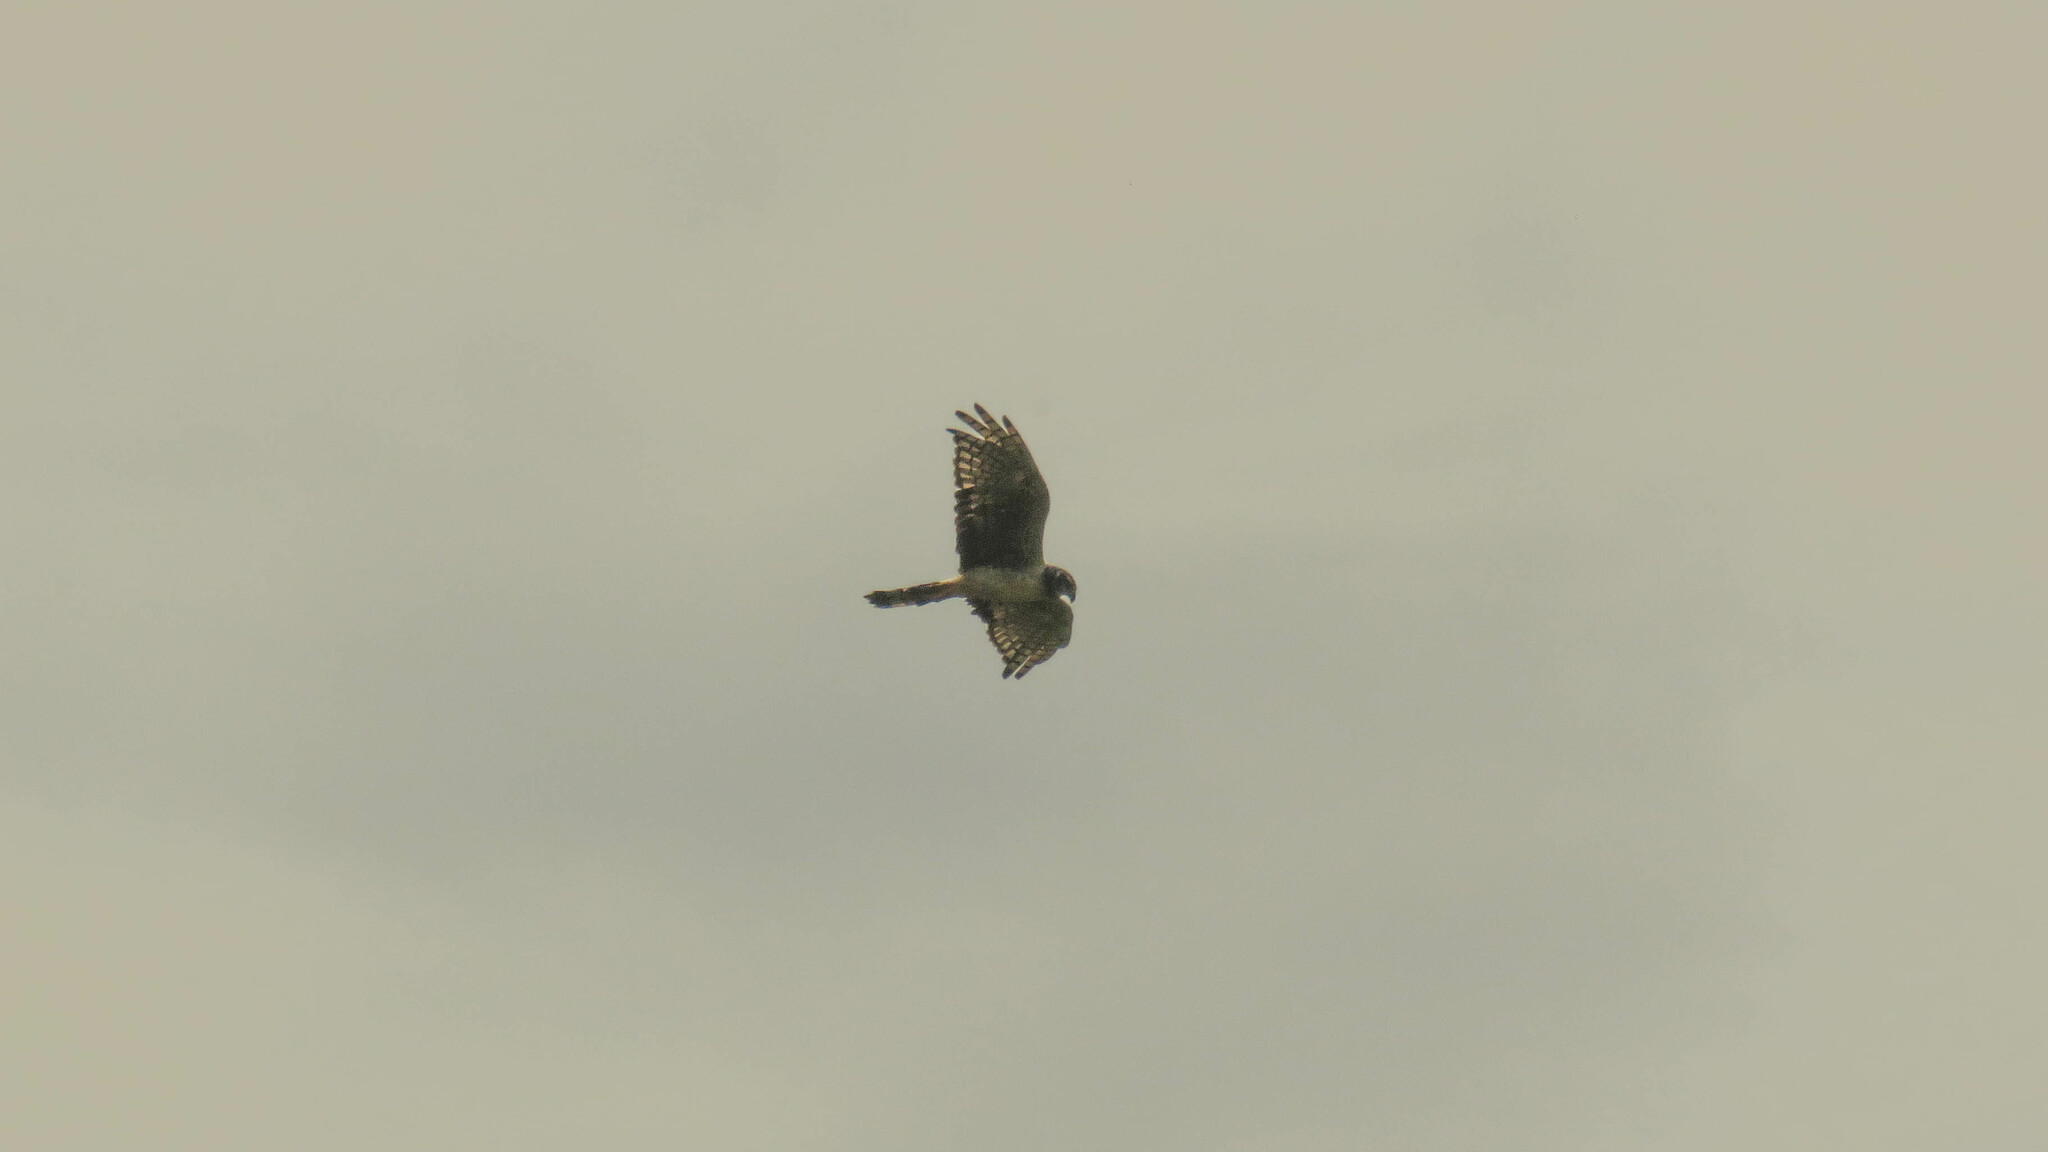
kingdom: Animalia
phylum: Chordata
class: Aves
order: Accipitriformes
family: Accipitridae
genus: Circus
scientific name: Circus buffoni
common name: Long-winged harrier
